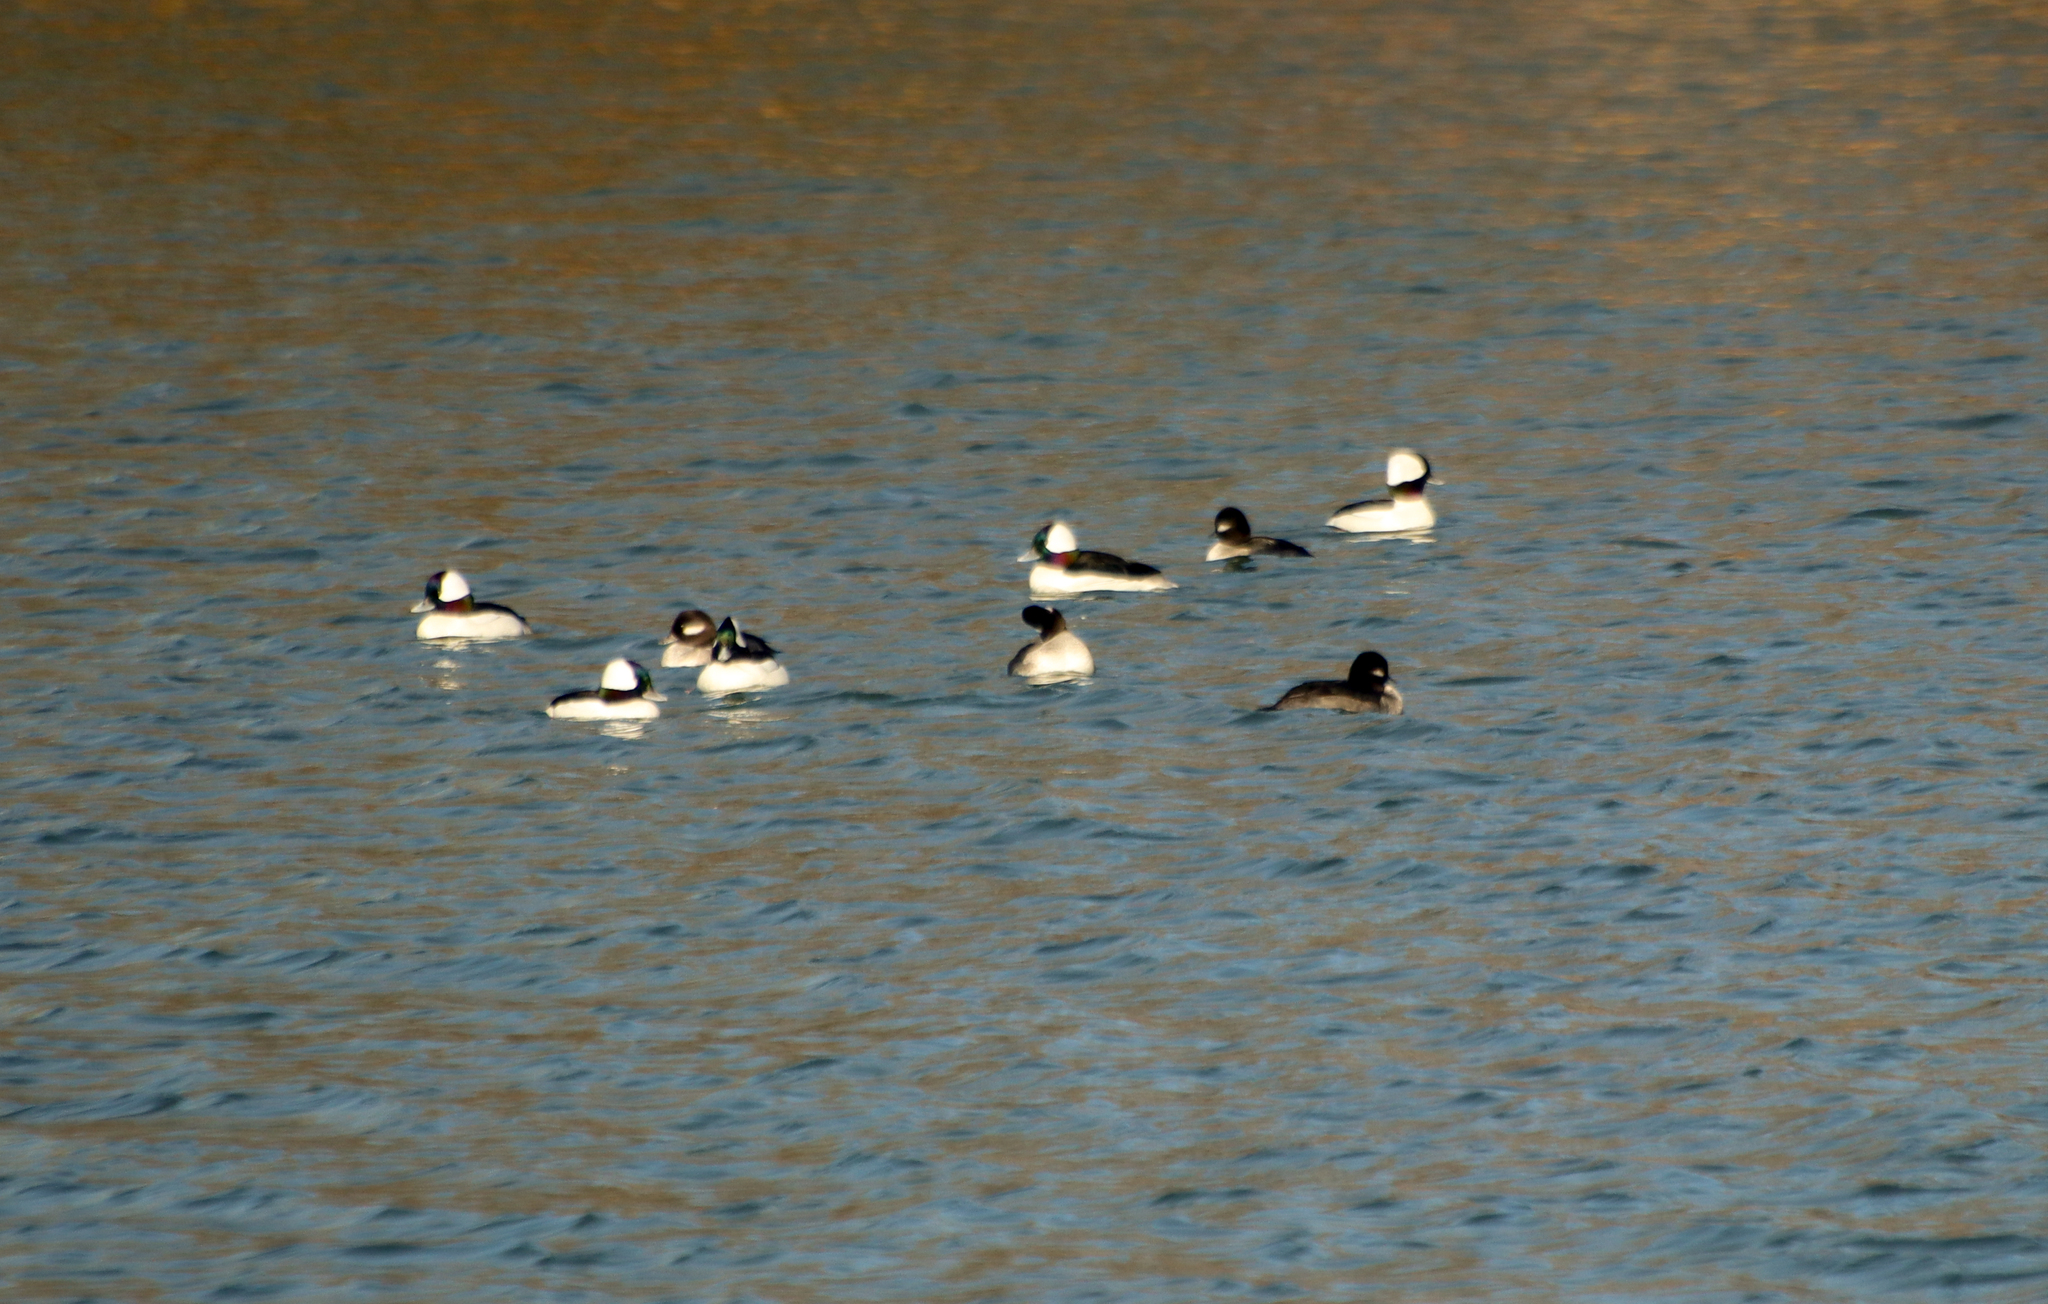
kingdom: Animalia
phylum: Chordata
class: Aves
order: Anseriformes
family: Anatidae
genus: Bucephala
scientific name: Bucephala albeola
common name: Bufflehead
